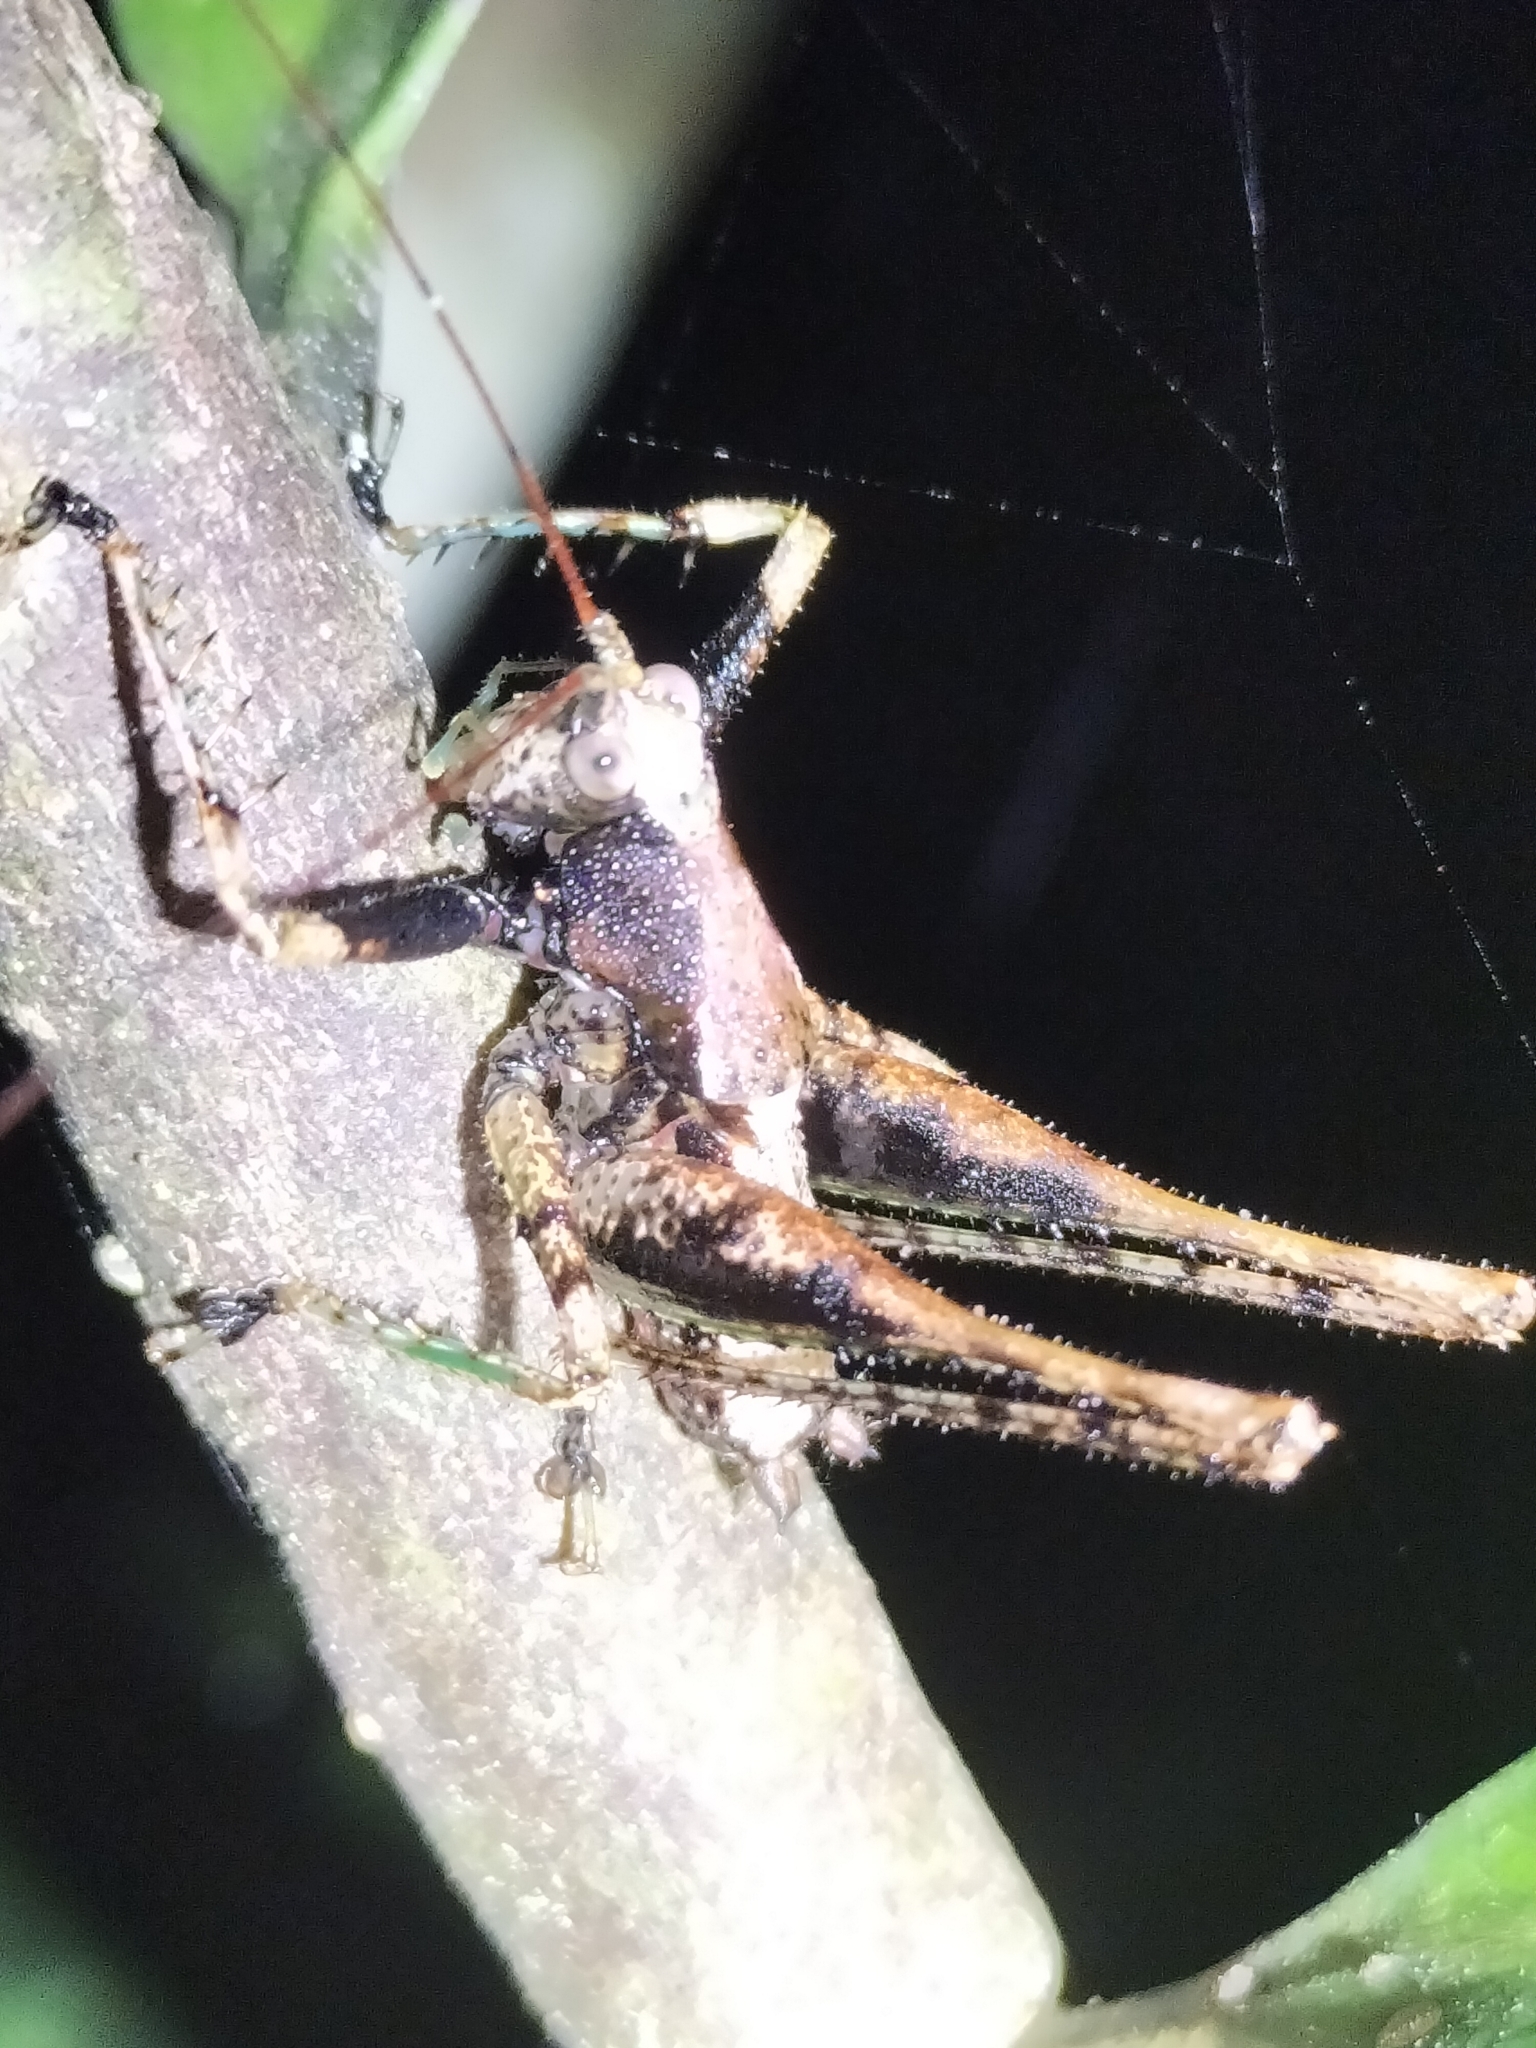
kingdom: Animalia
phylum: Arthropoda
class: Insecta
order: Orthoptera
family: Tettigoniidae
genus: Xingbaoia
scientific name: Xingbaoia karakara
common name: Jin's ginger katydid
